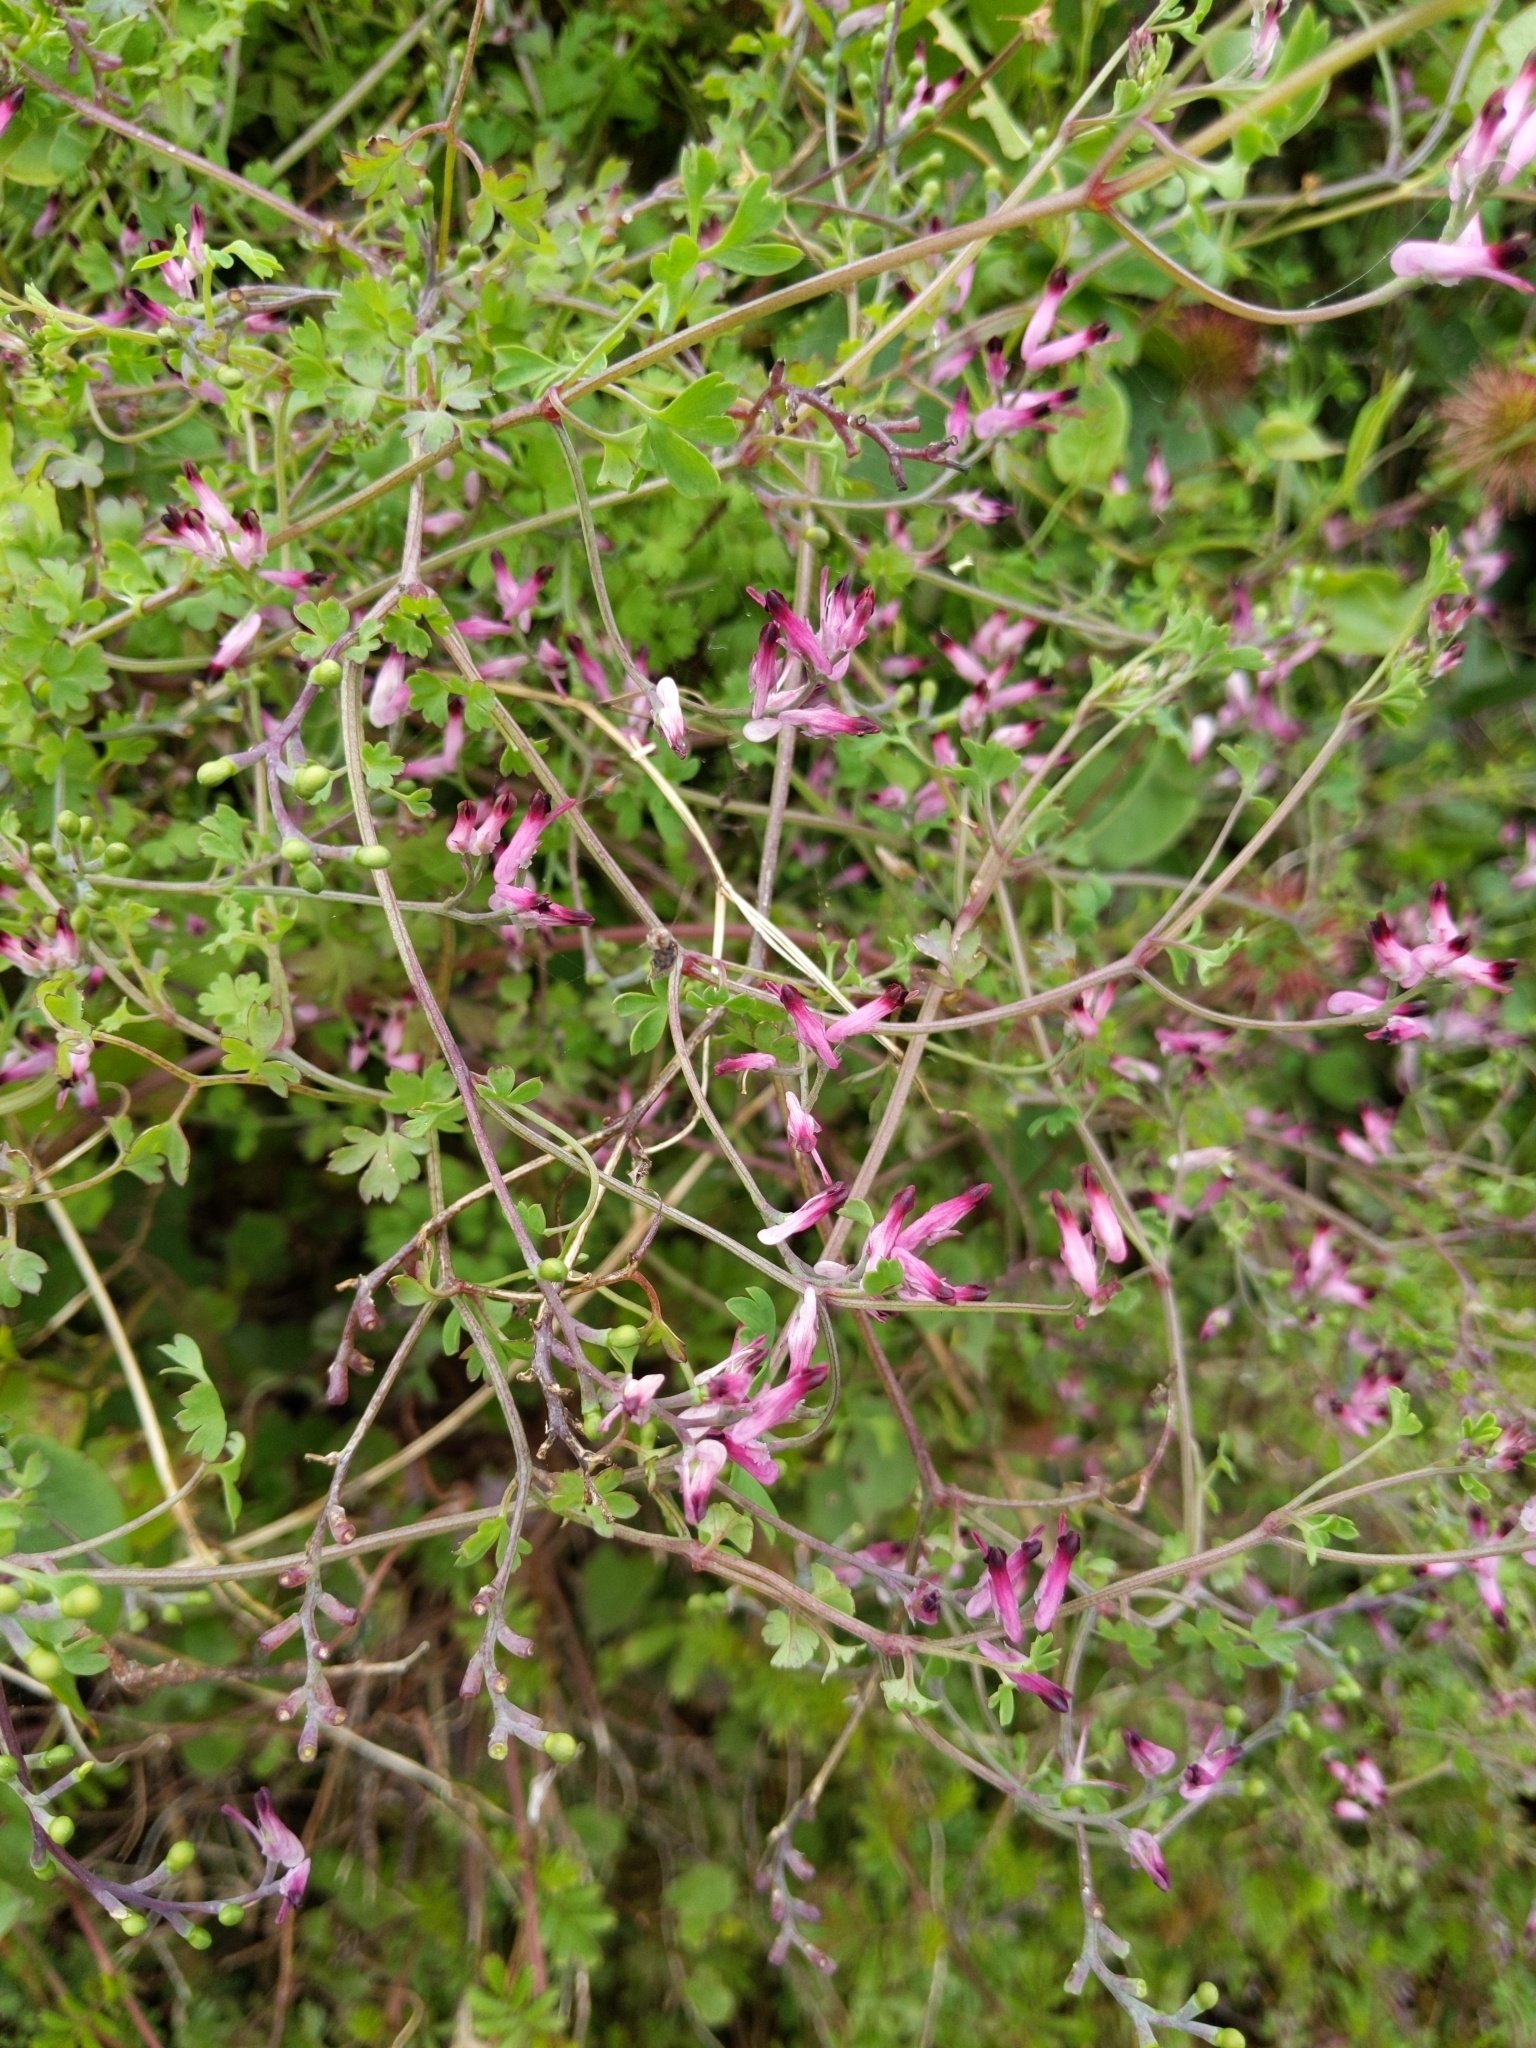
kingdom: Plantae
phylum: Tracheophyta
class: Magnoliopsida
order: Ranunculales
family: Papaveraceae
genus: Fumaria
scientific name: Fumaria muralis
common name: Common ramping-fumitory
